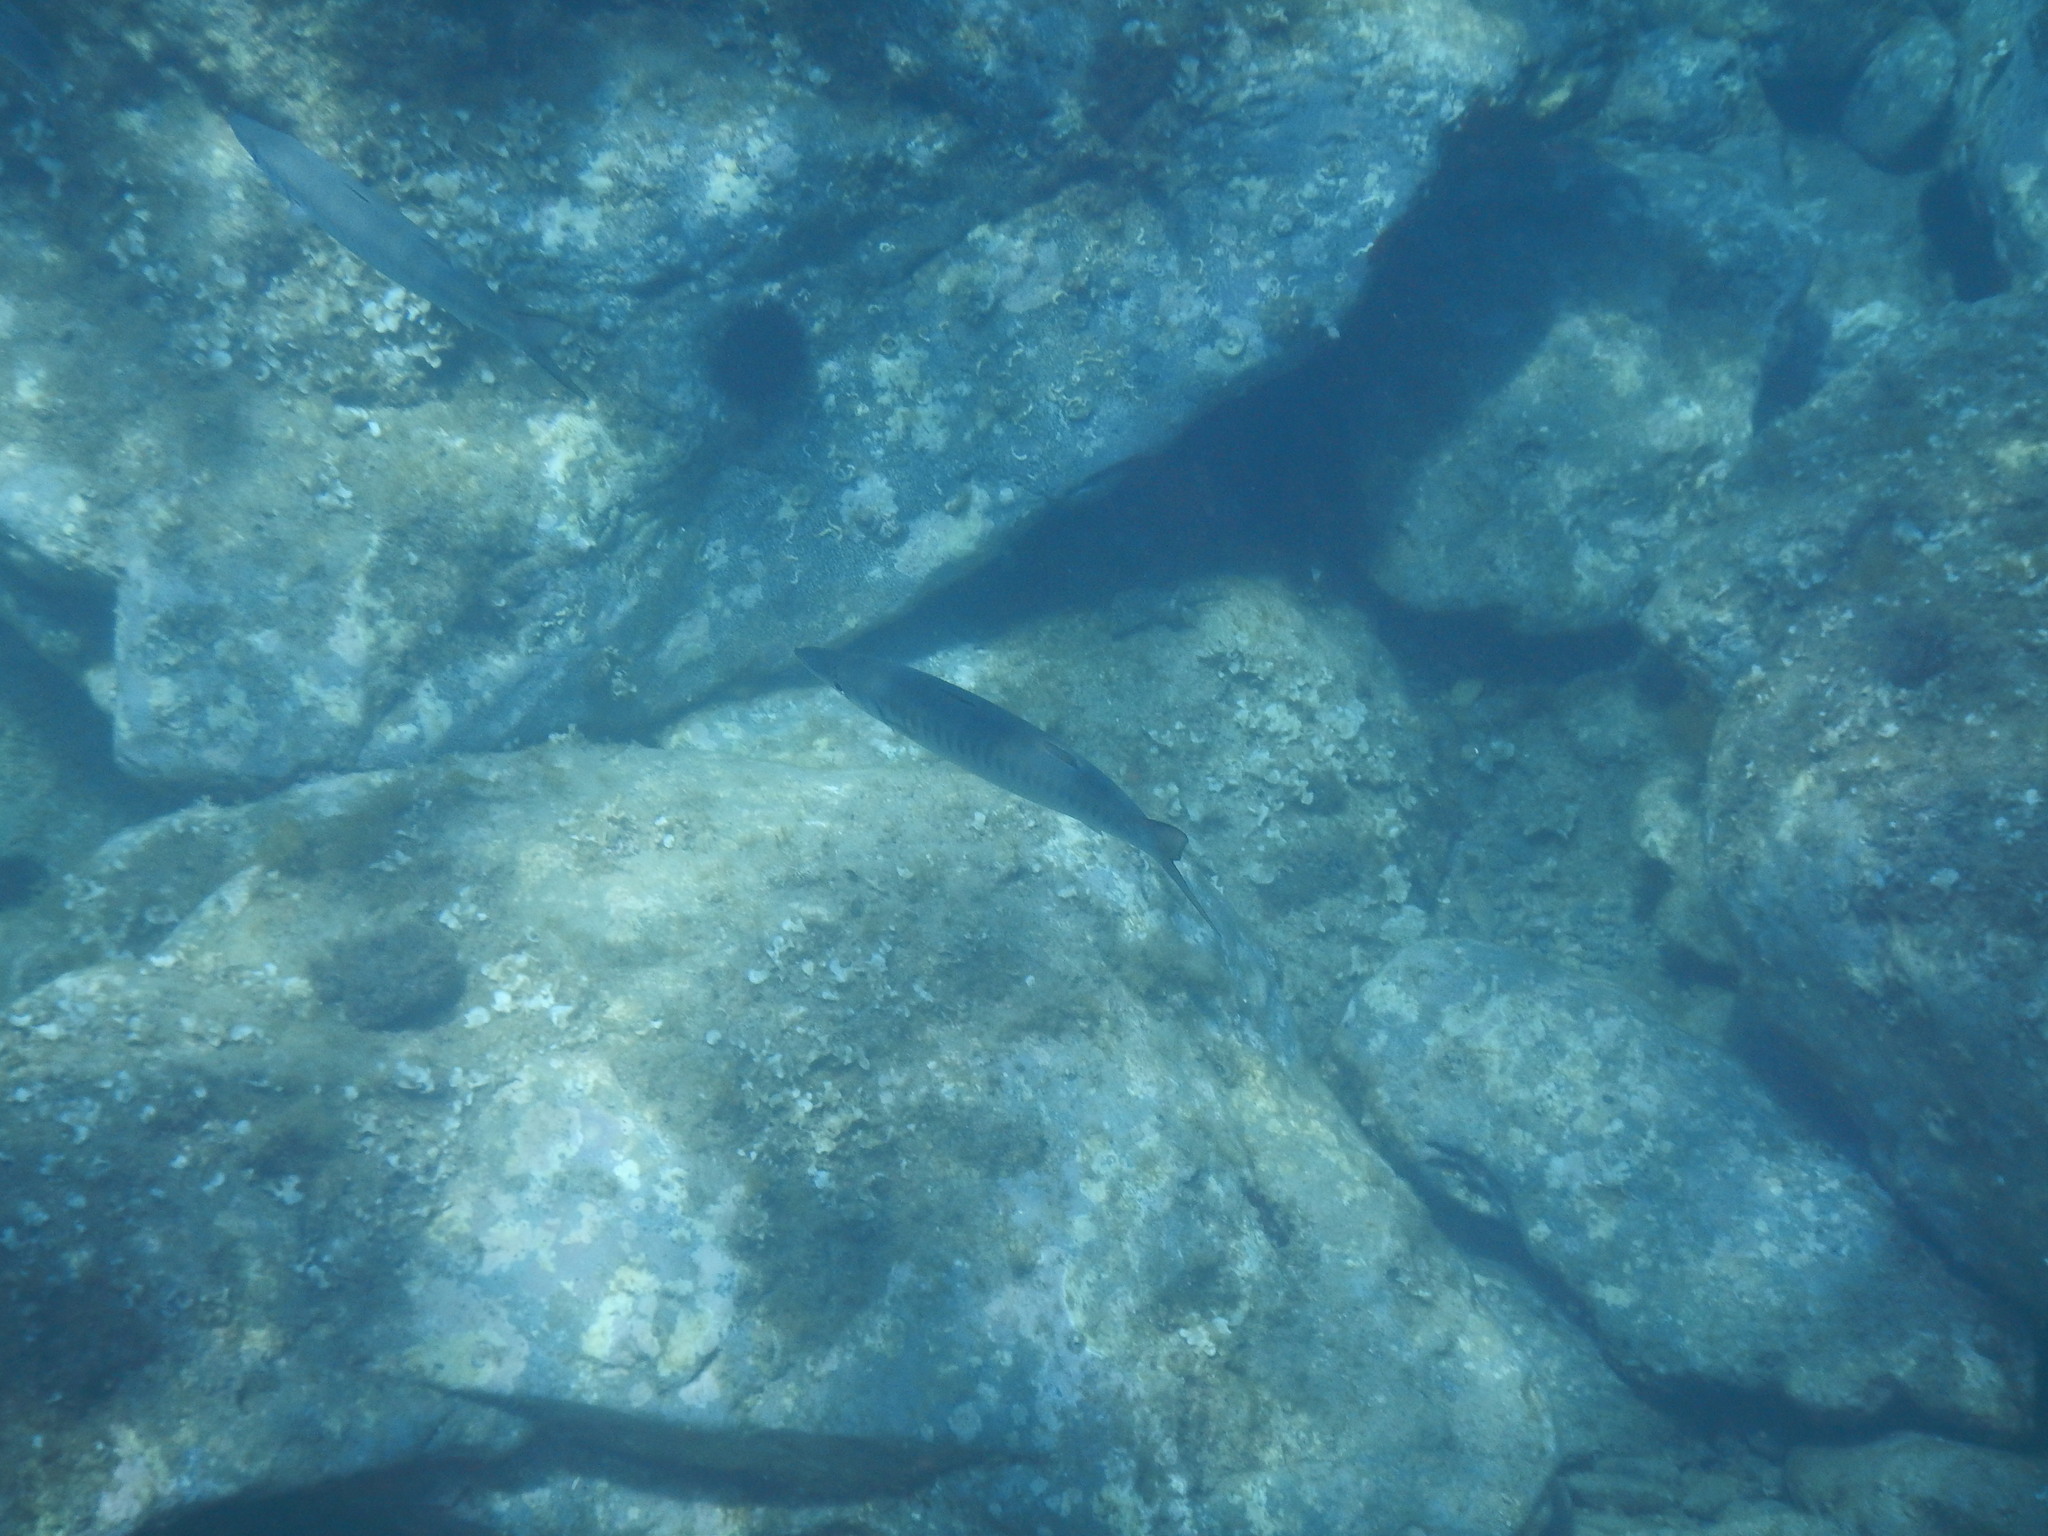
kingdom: Animalia
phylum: Chordata
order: Perciformes
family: Sphyraenidae
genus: Sphyraena
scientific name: Sphyraena viridensis
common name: Yellowmouth barracuda
